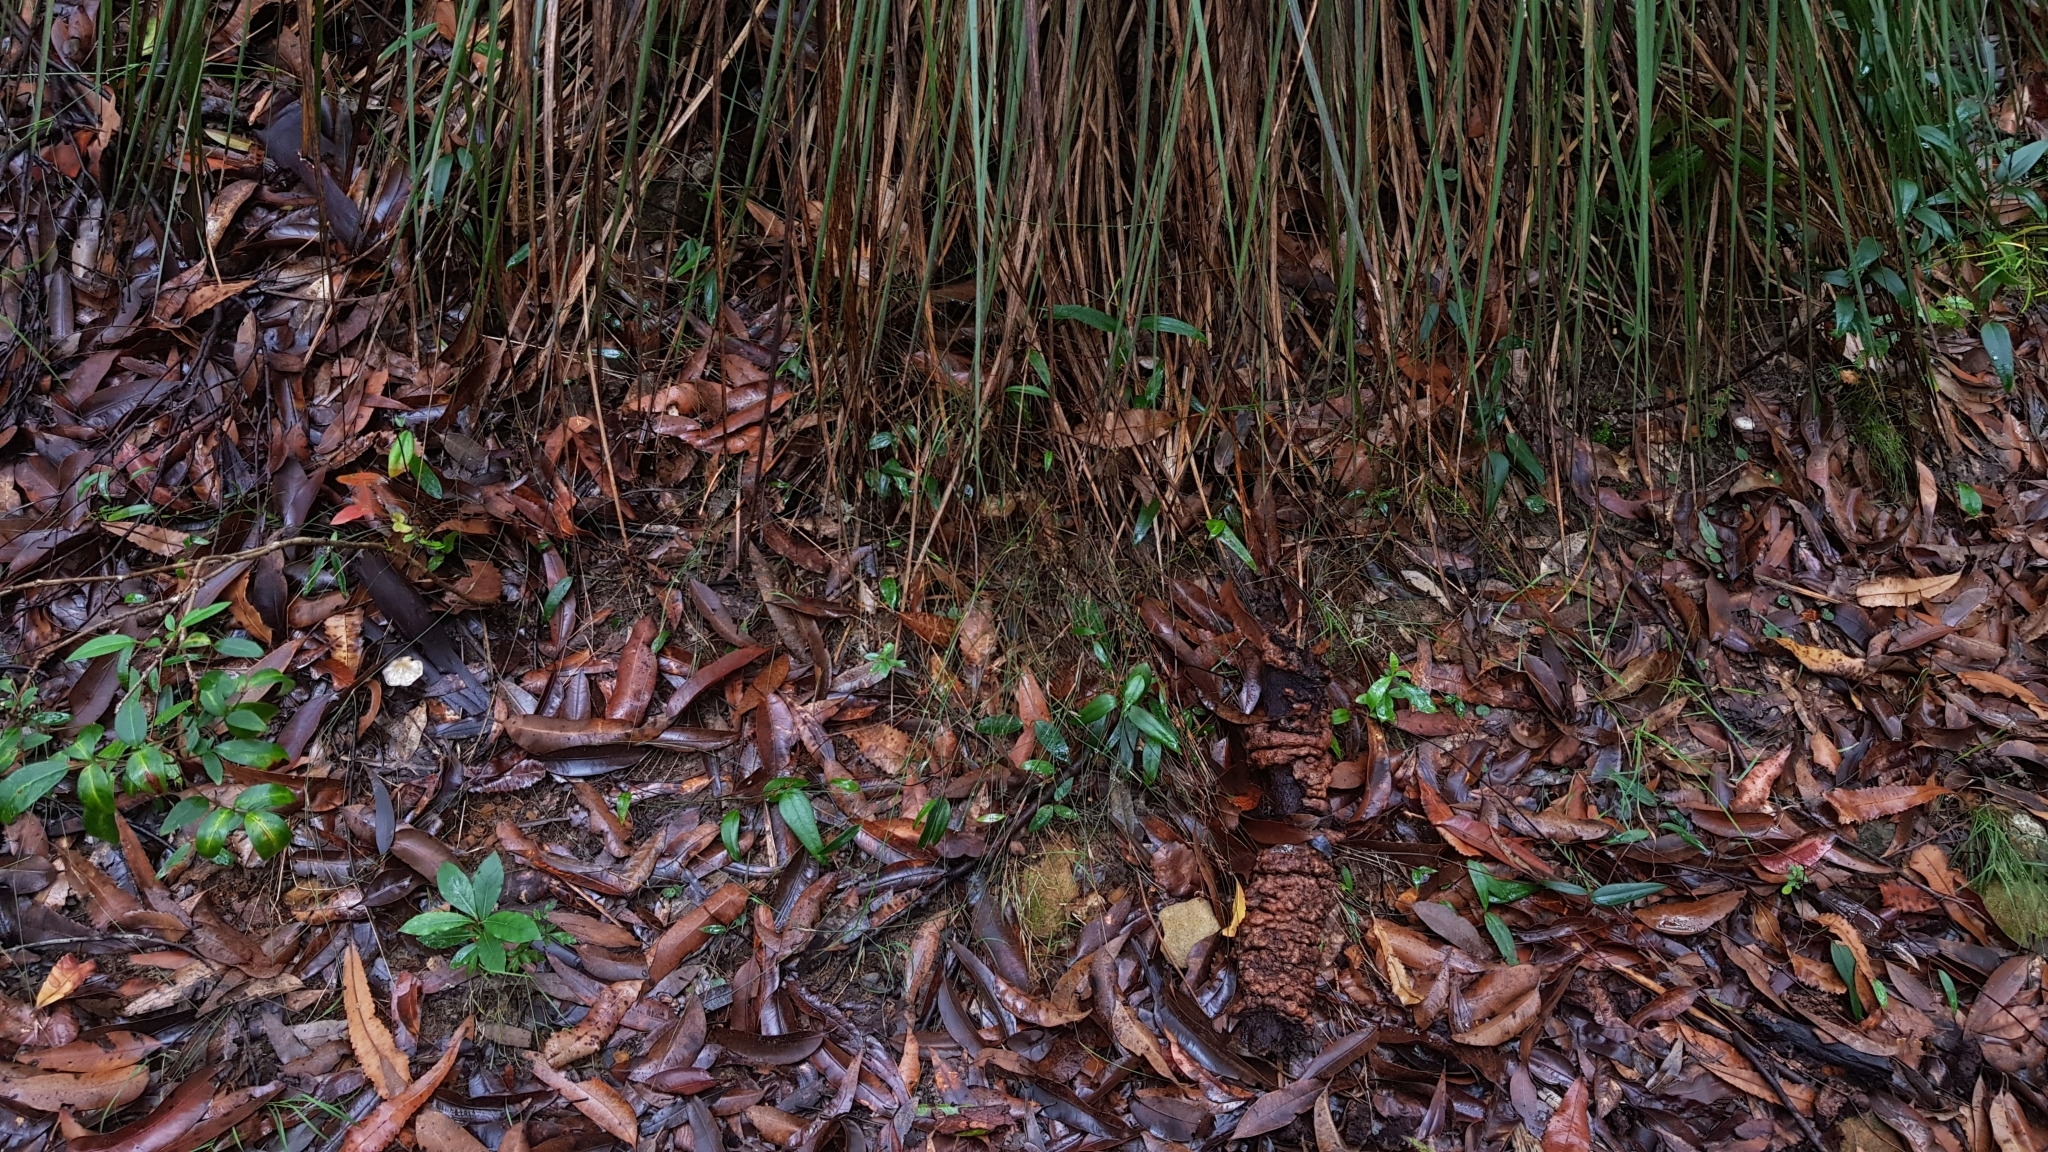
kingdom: Fungi
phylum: Basidiomycota
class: Agaricomycetes
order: Agaricales
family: Cortinariaceae
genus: Cortinarius
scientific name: Cortinarius rotundisporus
